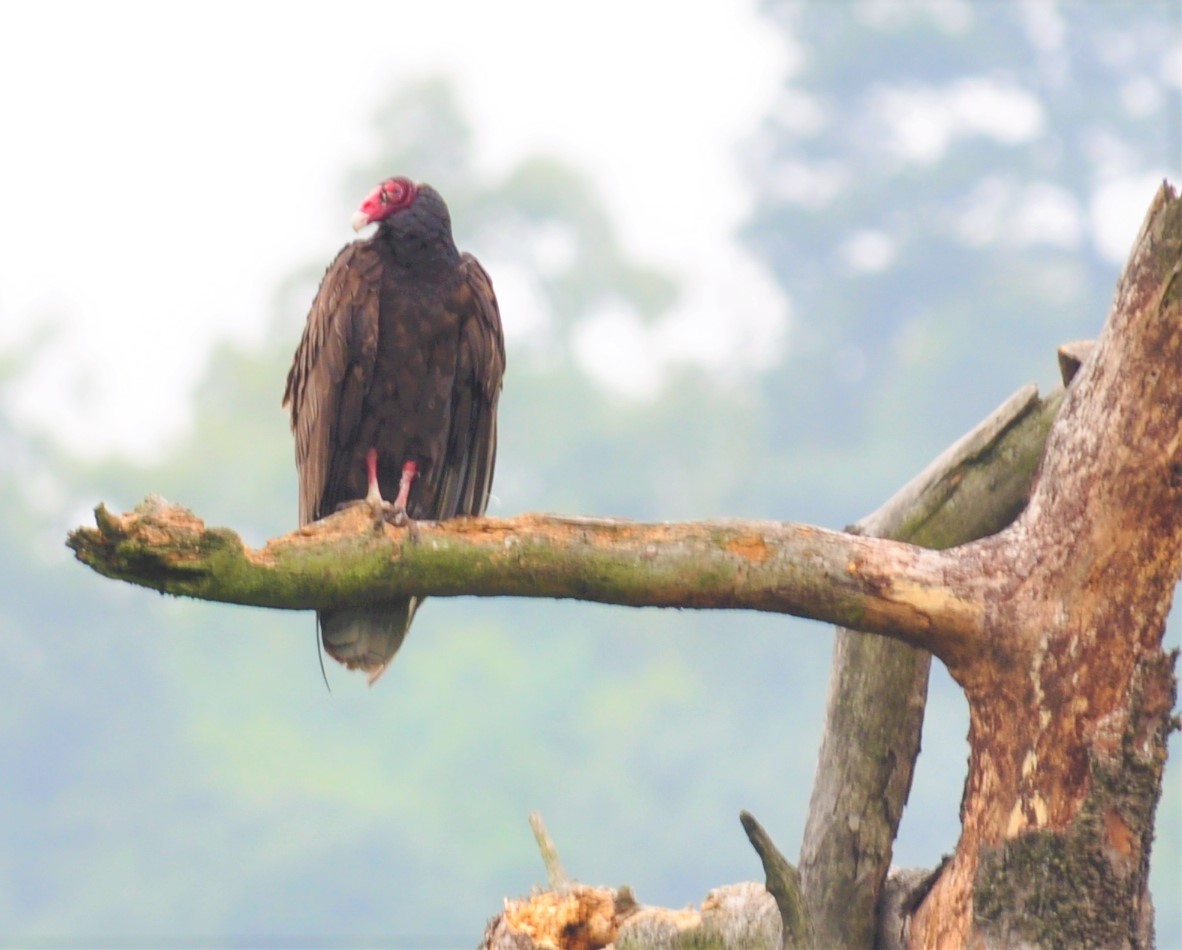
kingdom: Animalia
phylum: Chordata
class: Aves
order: Accipitriformes
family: Cathartidae
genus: Cathartes
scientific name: Cathartes aura
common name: Turkey vulture
